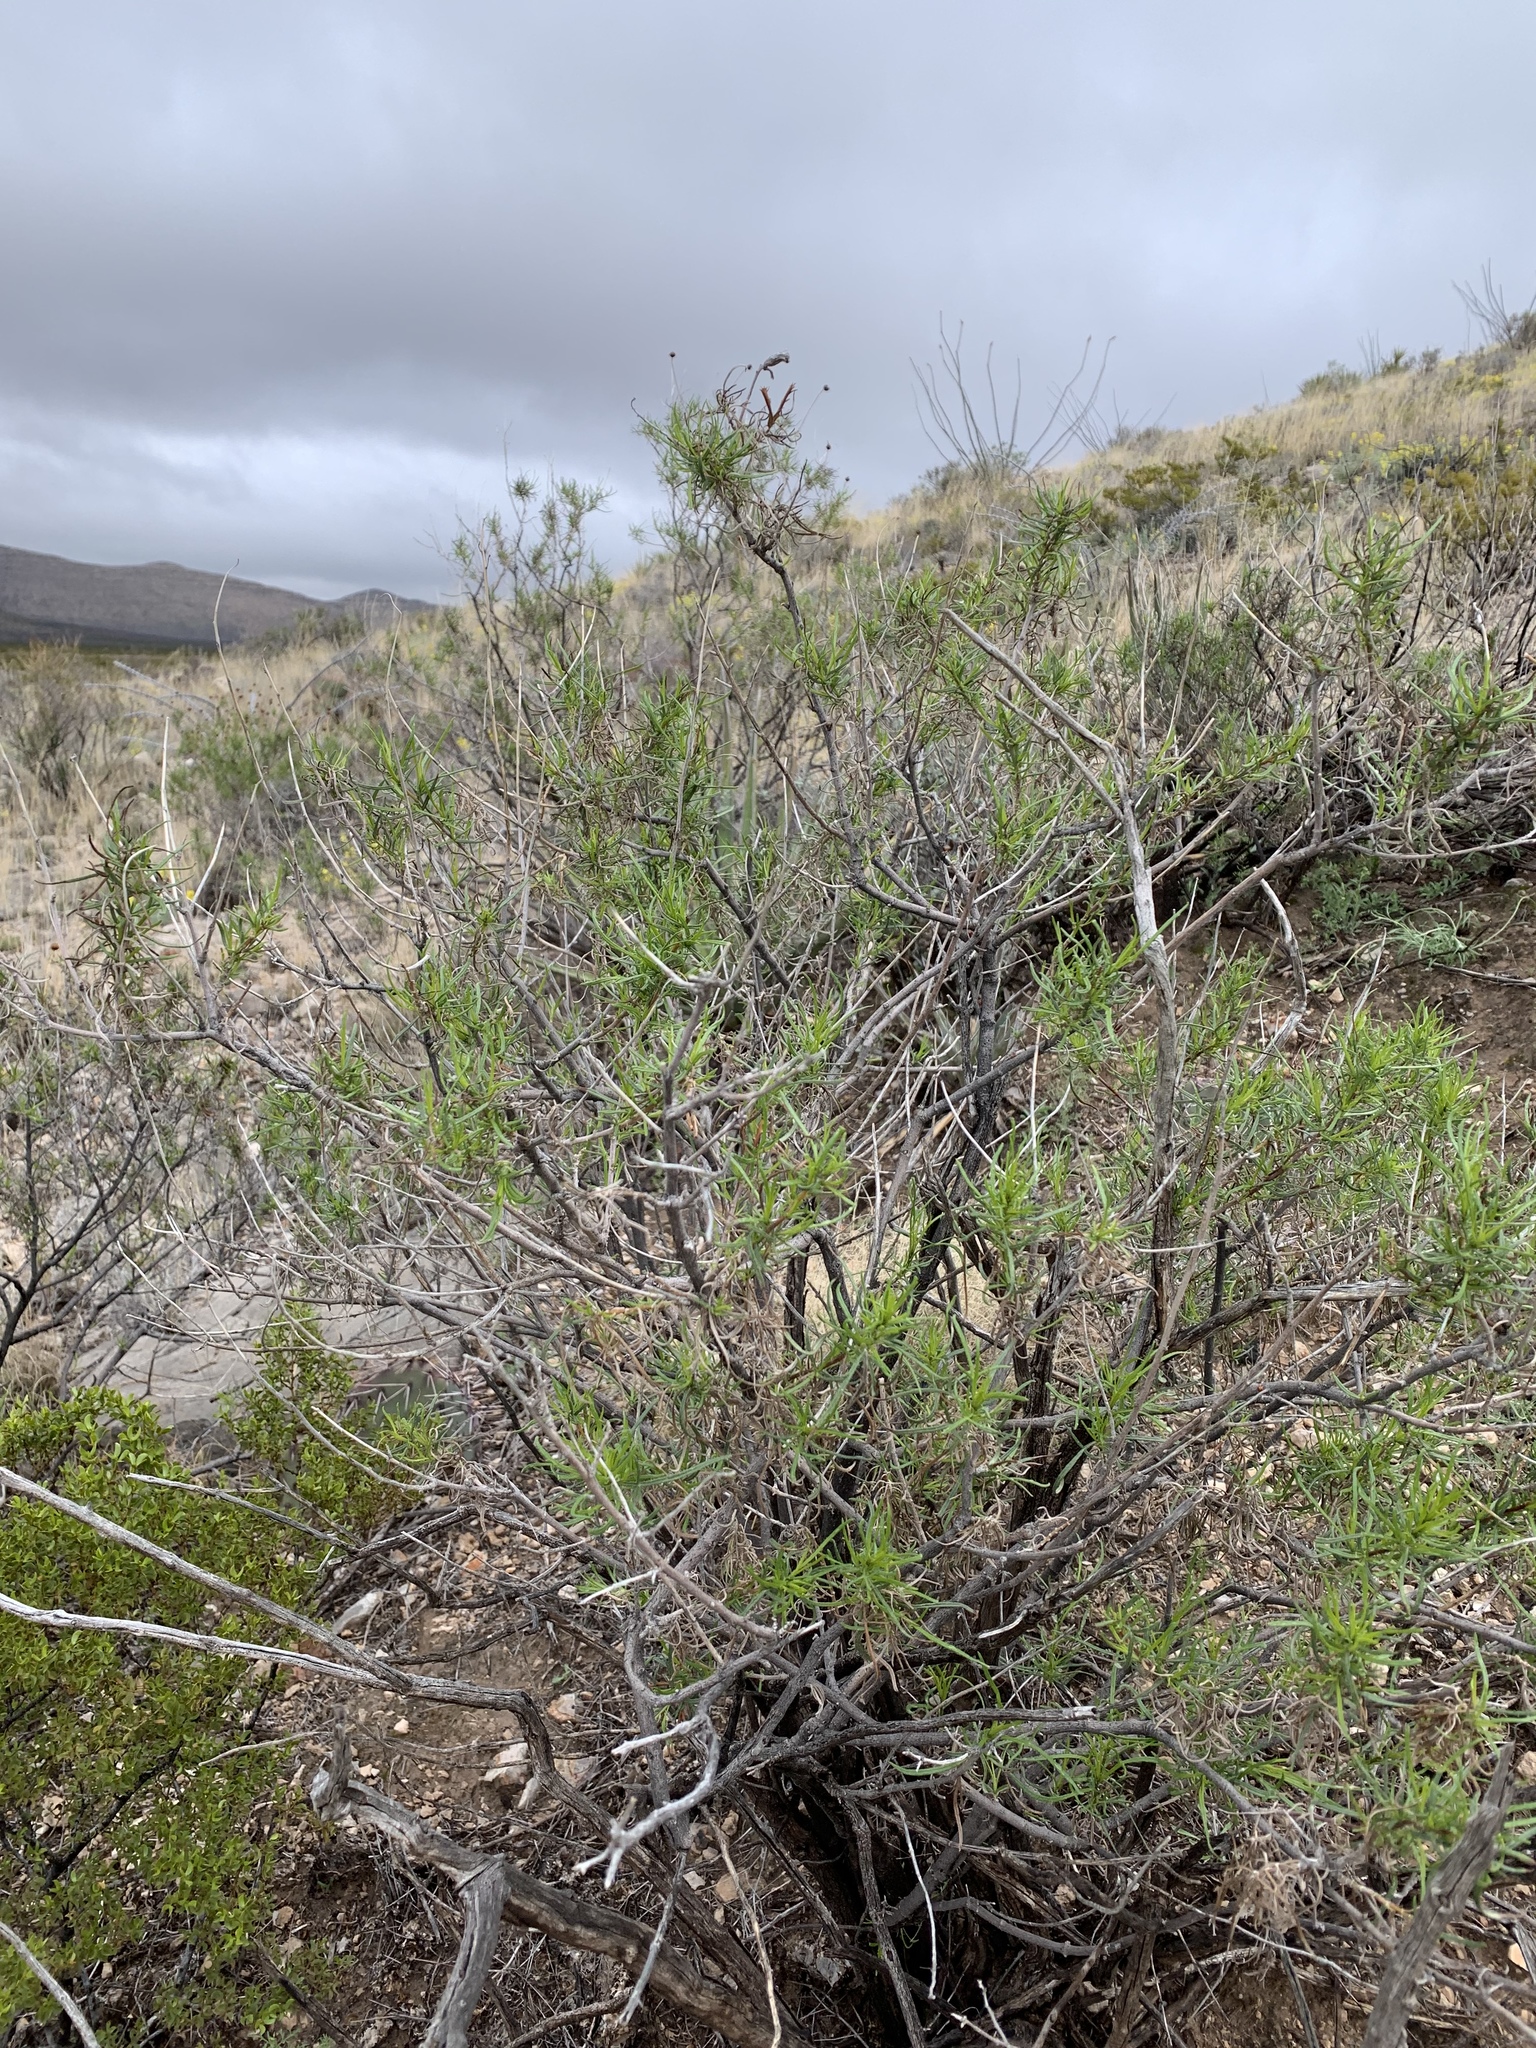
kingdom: Plantae
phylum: Tracheophyta
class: Magnoliopsida
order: Asterales
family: Asteraceae
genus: Sidneya
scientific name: Sidneya tenuifolia
